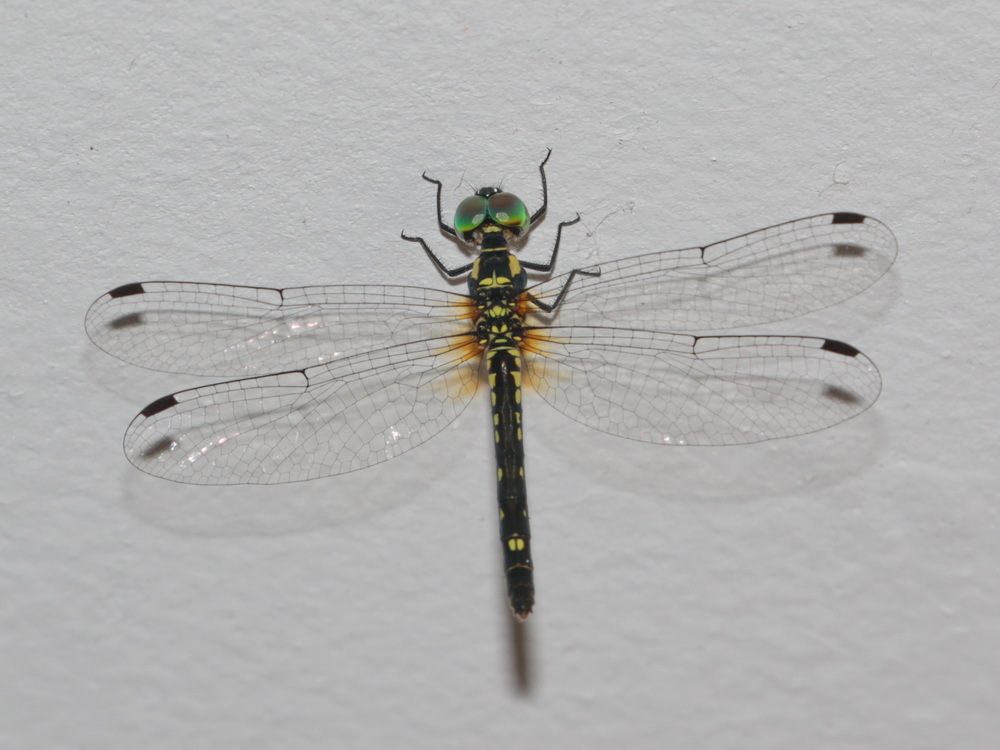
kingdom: Animalia
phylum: Arthropoda
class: Insecta
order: Odonata
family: Libellulidae
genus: Tetrathemis
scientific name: Tetrathemis hyalina
